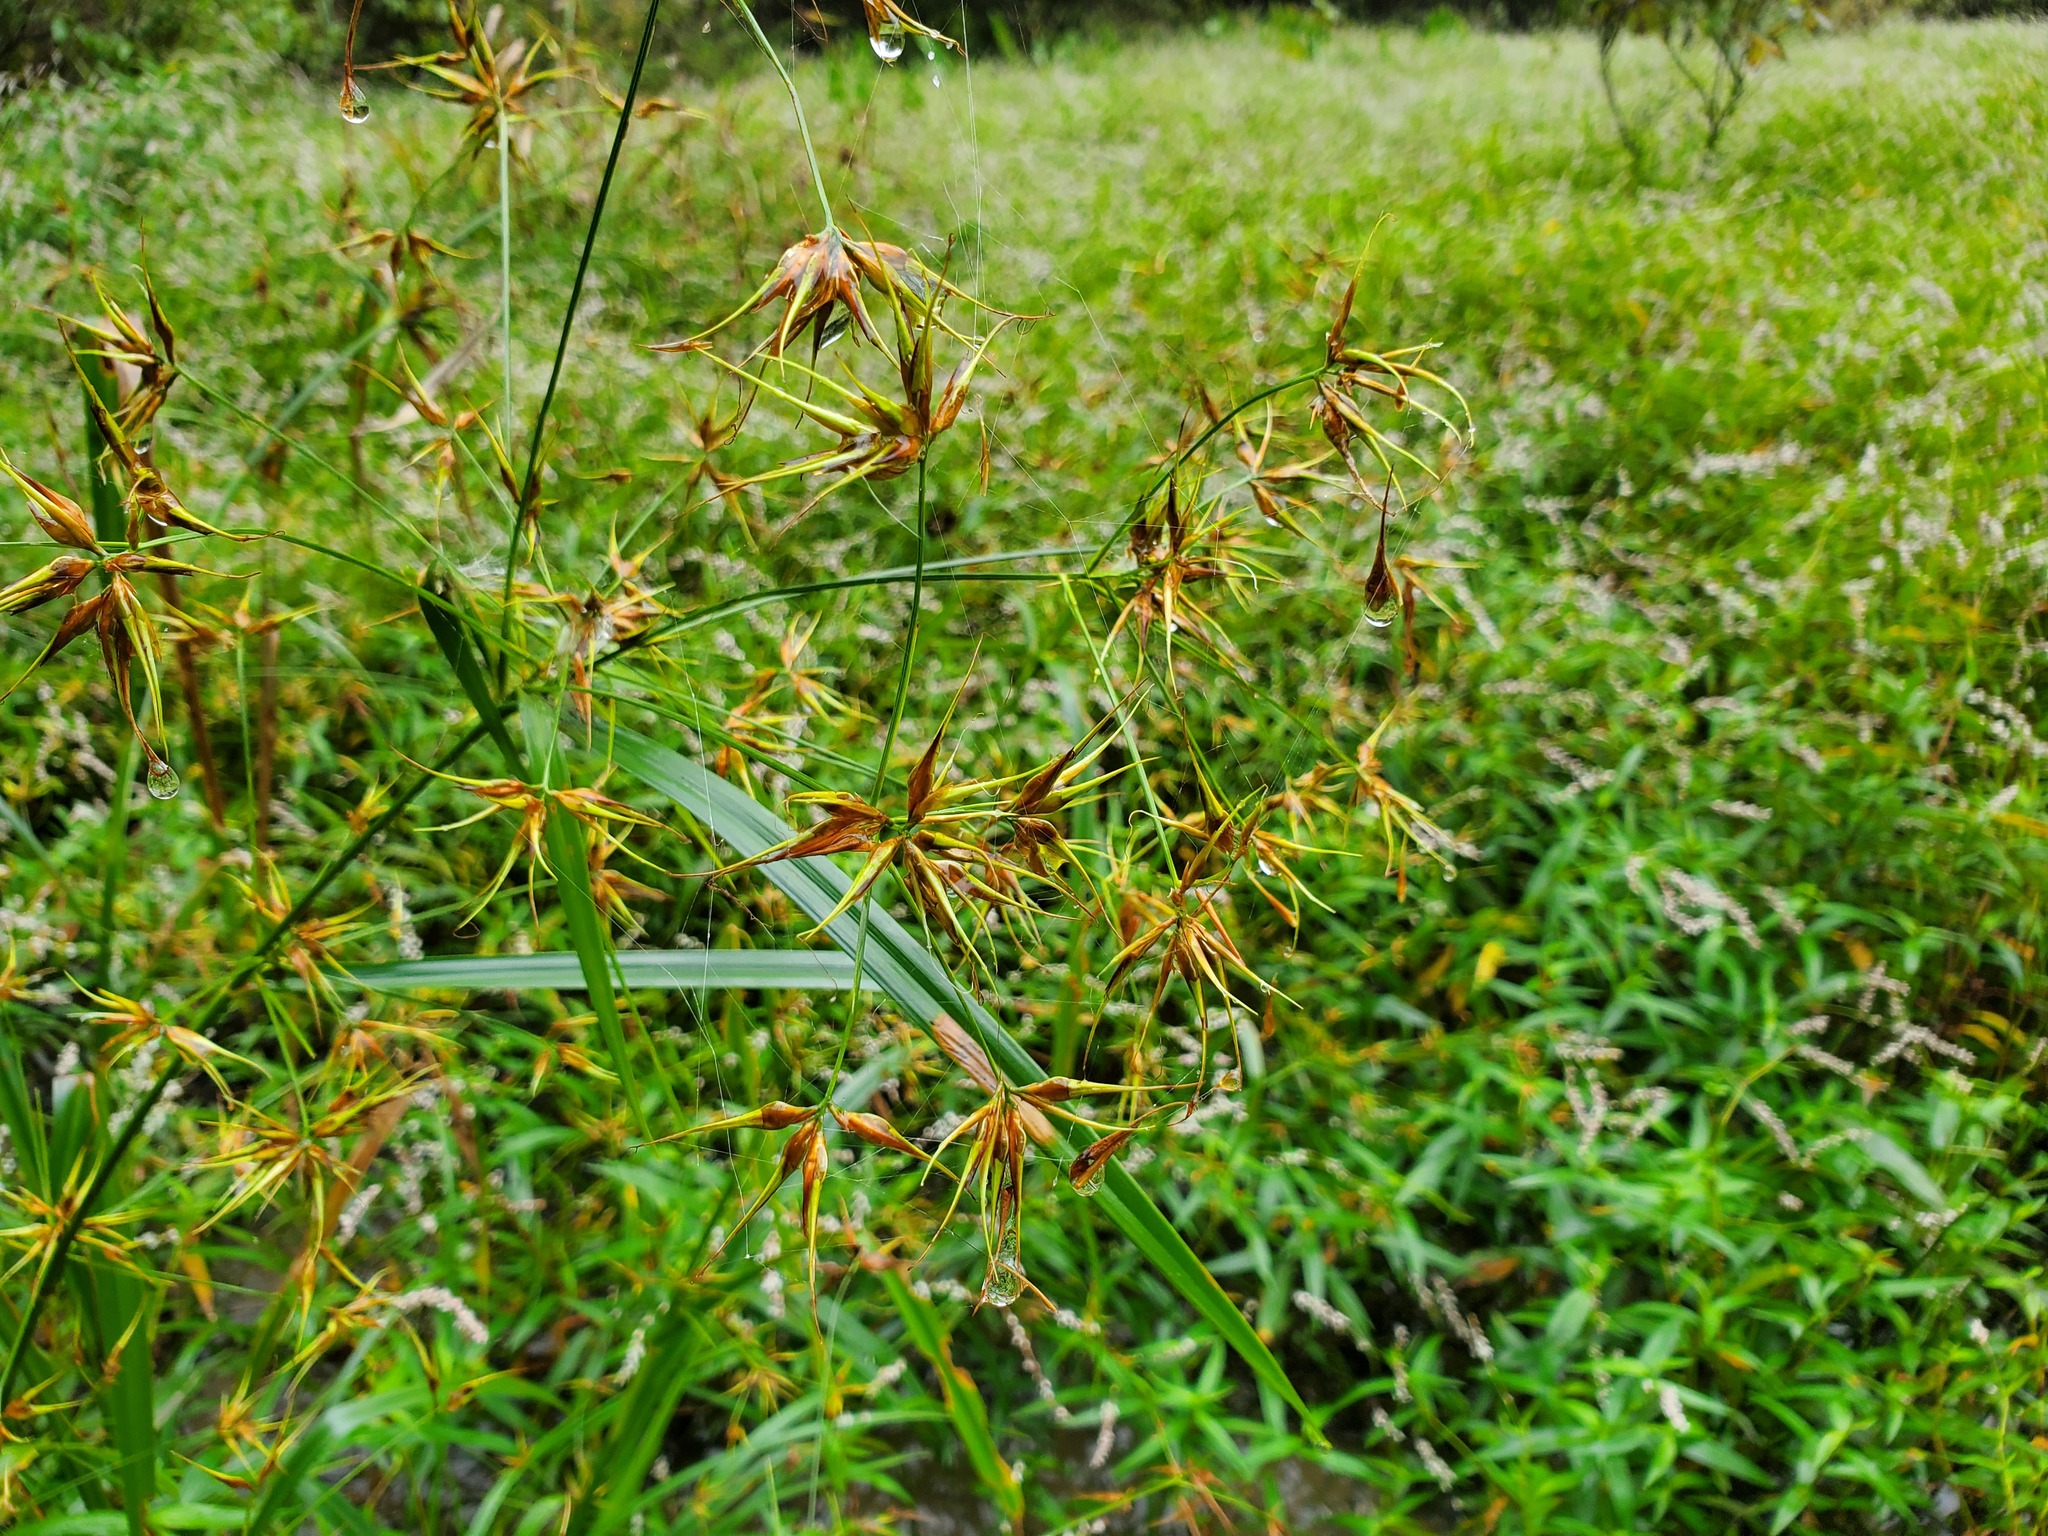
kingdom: Plantae
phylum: Tracheophyta
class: Liliopsida
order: Poales
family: Cyperaceae
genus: Rhynchospora
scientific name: Rhynchospora corniculata
